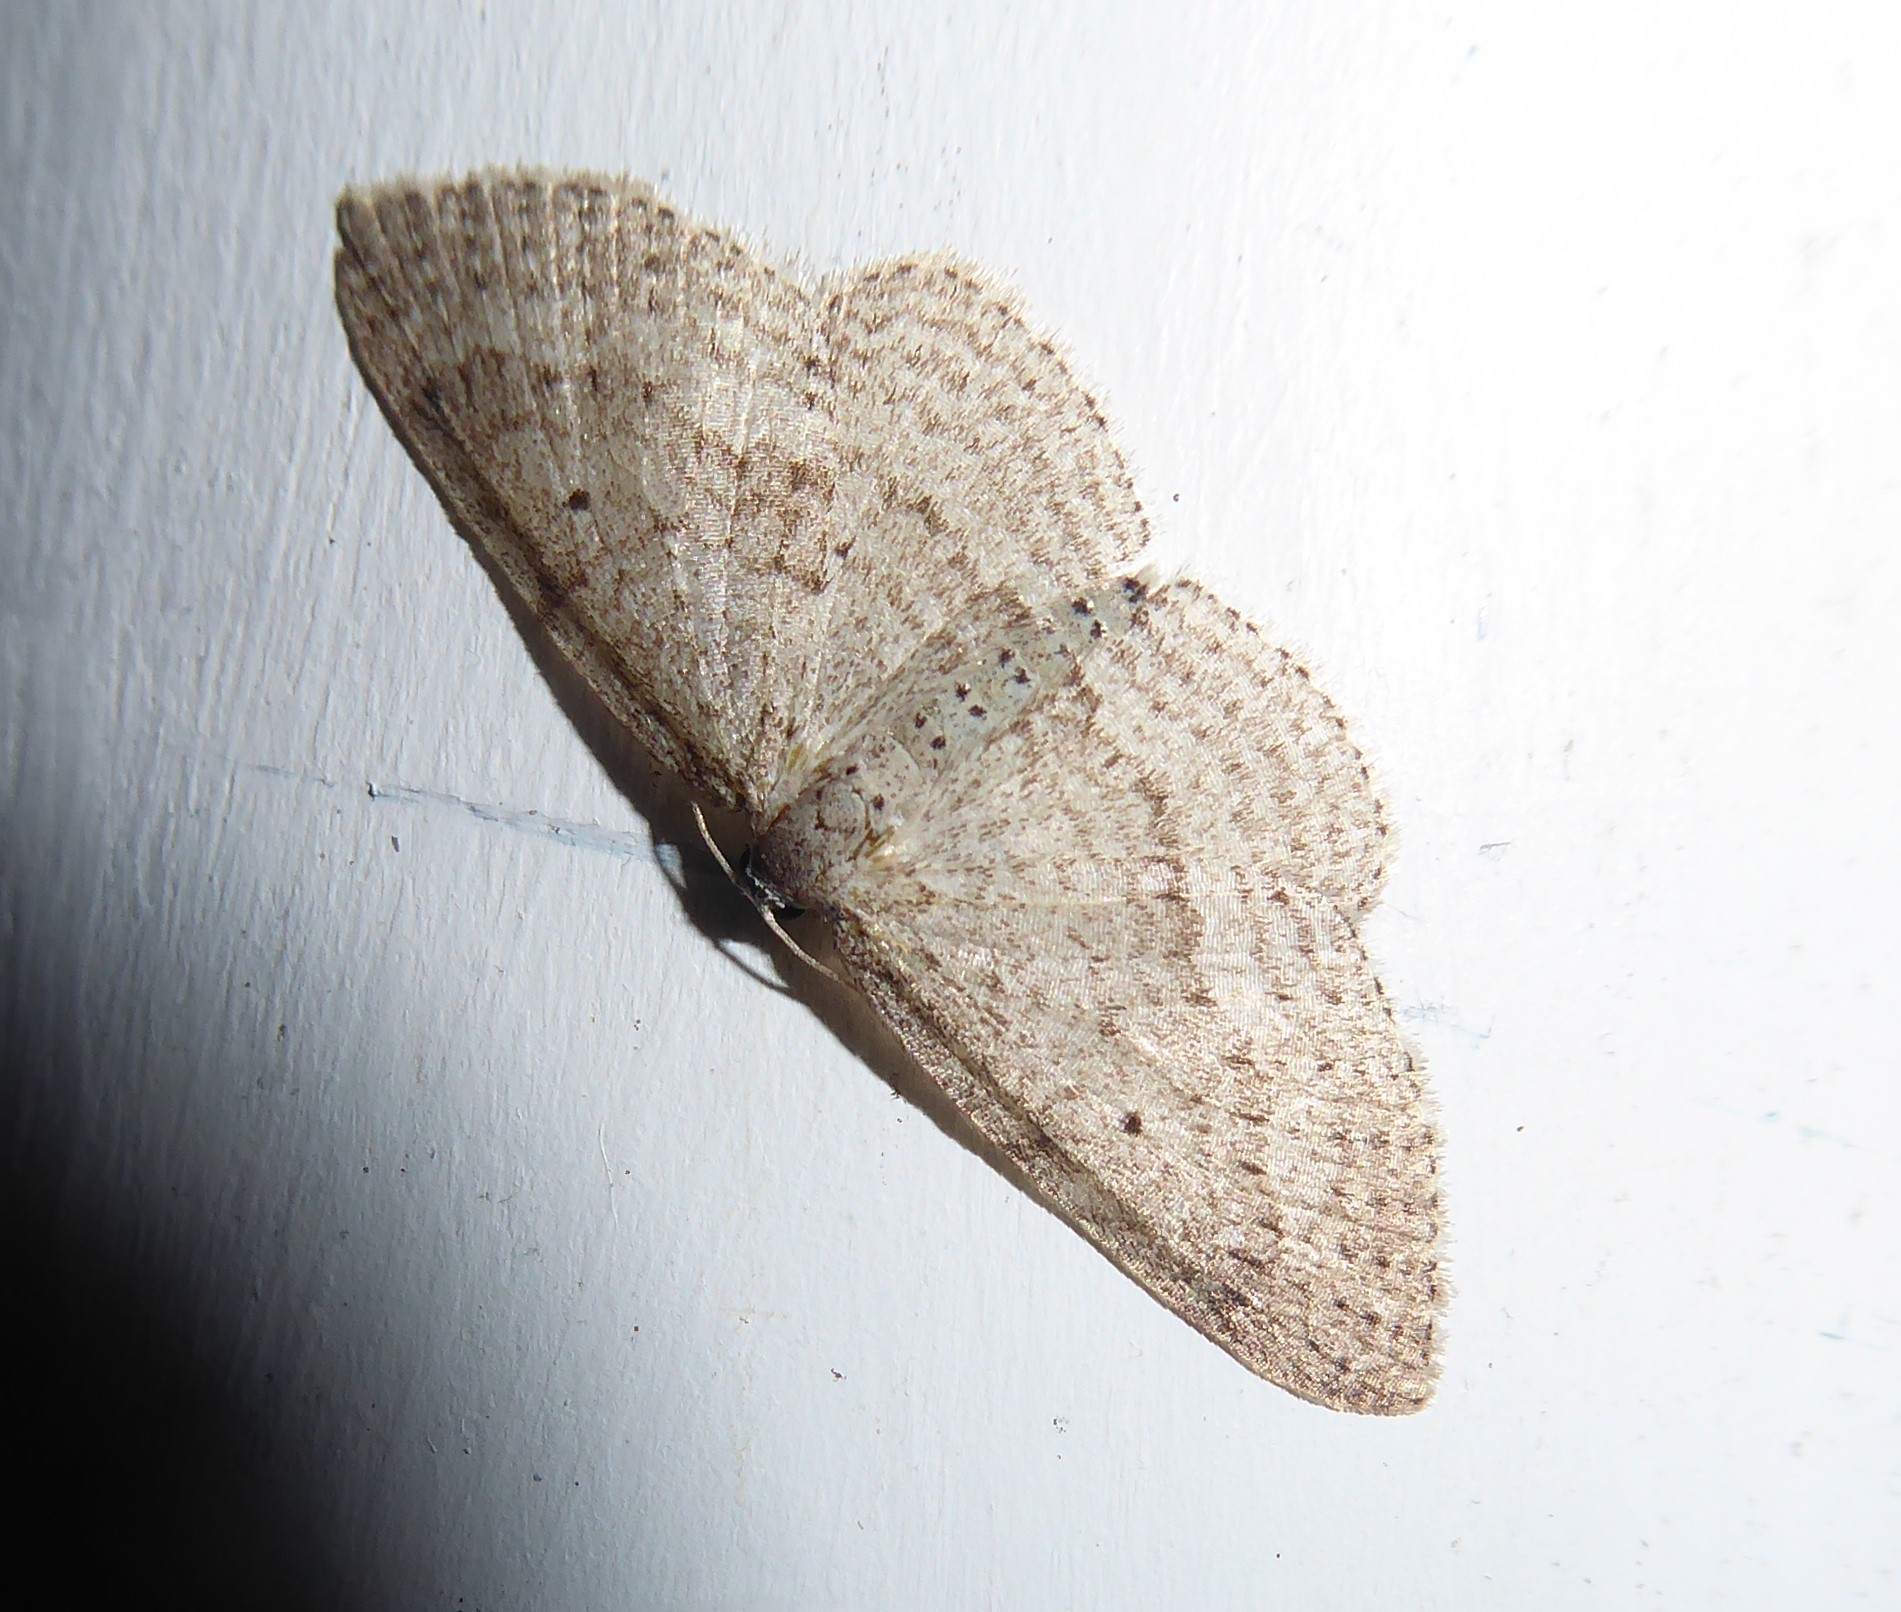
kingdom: Animalia
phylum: Arthropoda
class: Insecta
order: Lepidoptera
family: Geometridae
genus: Poecilasthena
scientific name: Poecilasthena schistaria
